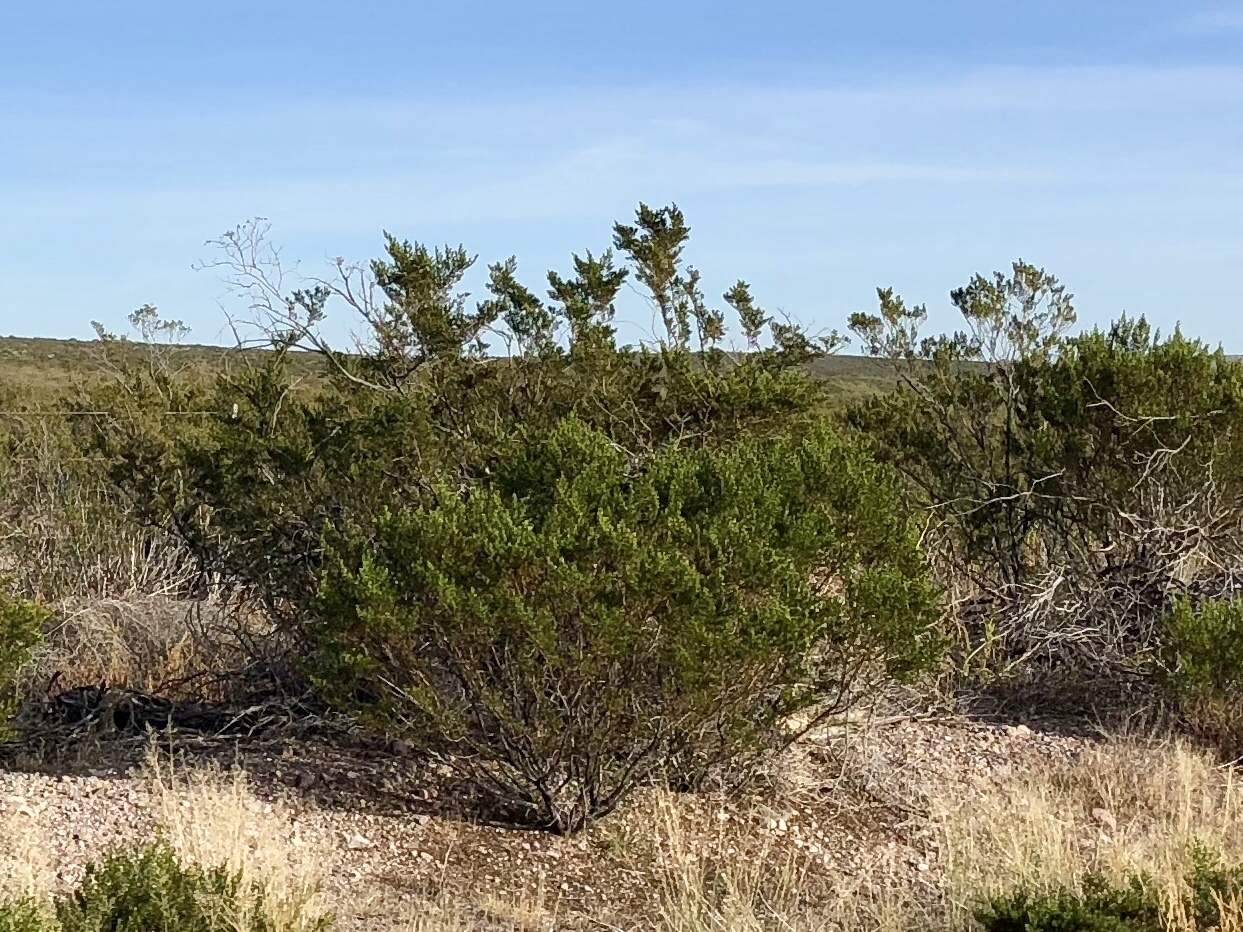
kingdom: Plantae
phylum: Tracheophyta
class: Magnoliopsida
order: Zygophyllales
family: Zygophyllaceae
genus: Larrea
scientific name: Larrea tridentata
